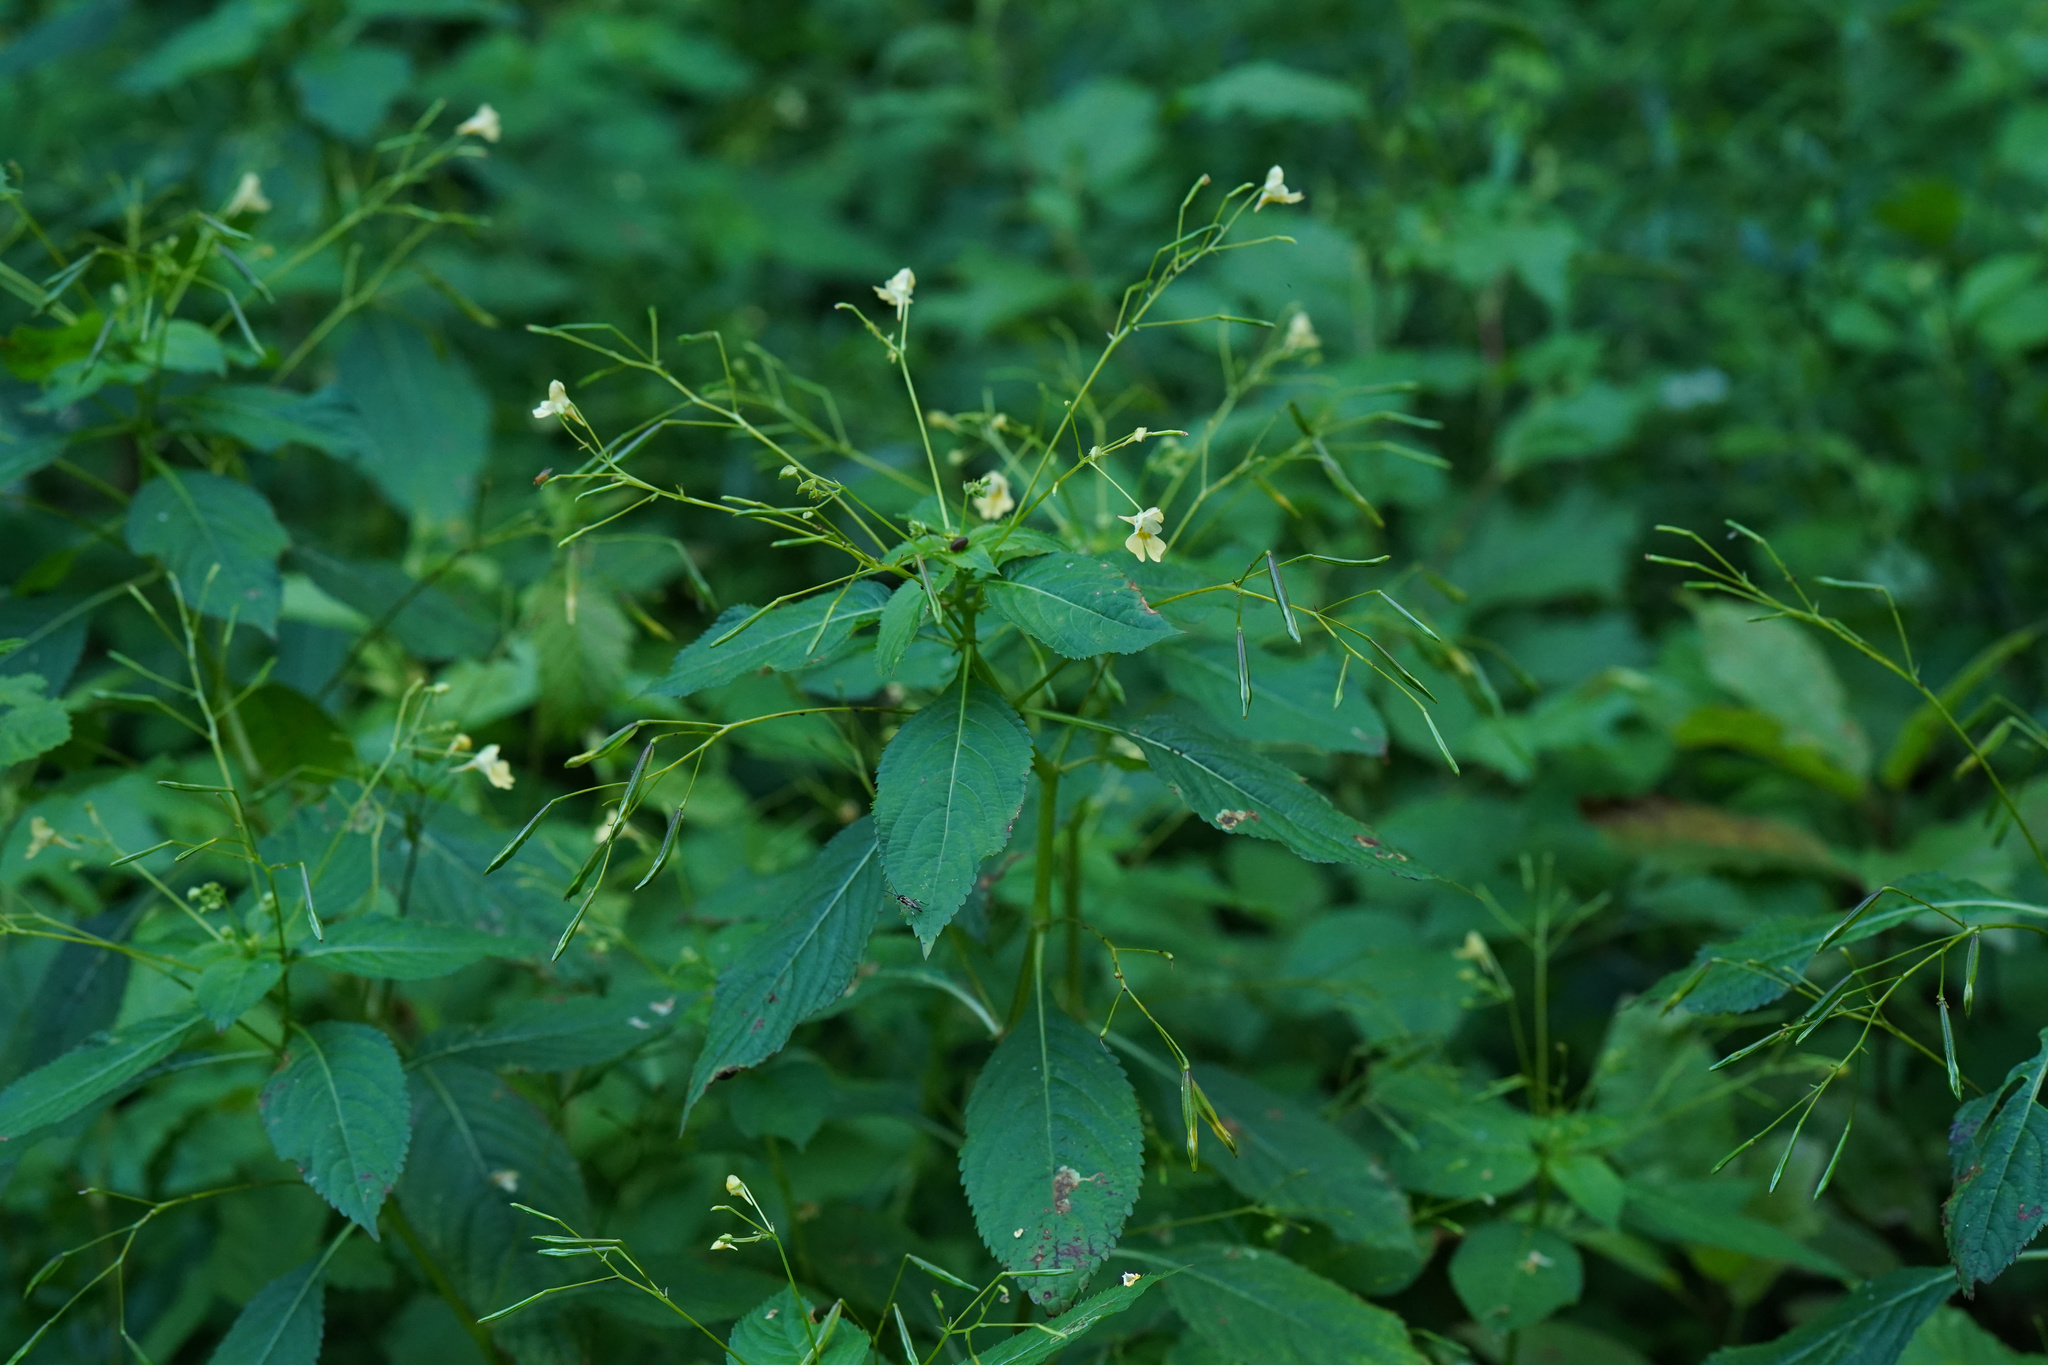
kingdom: Plantae
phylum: Tracheophyta
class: Magnoliopsida
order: Ericales
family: Balsaminaceae
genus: Impatiens
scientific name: Impatiens parviflora
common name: Small balsam
